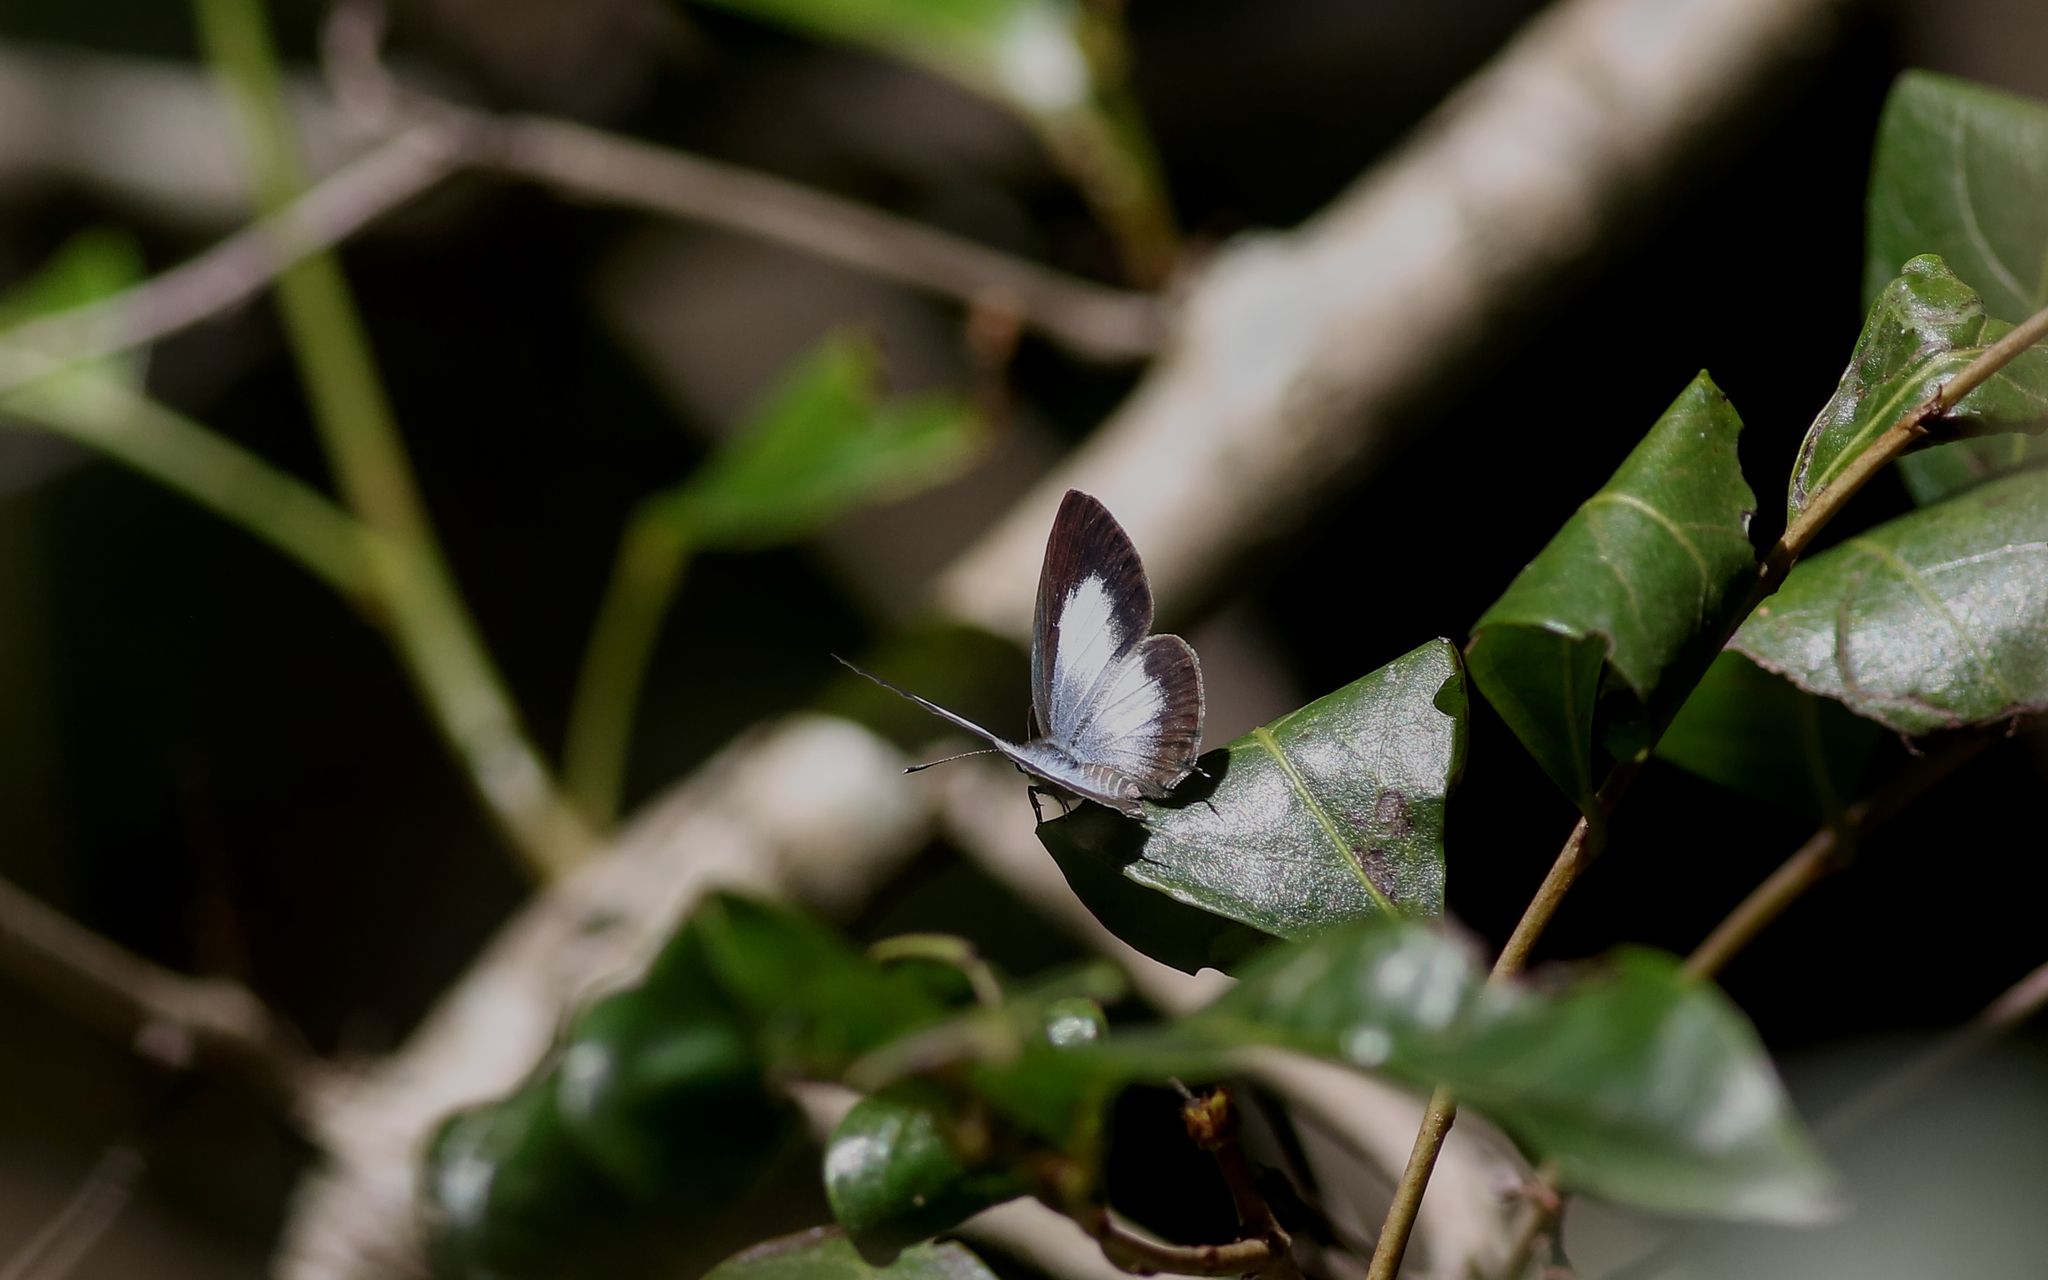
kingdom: Animalia
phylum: Arthropoda
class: Insecta
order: Lepidoptera
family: Lycaenidae
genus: Nacaduba
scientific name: Nacaduba kurava
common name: Transparent 6-line blue
